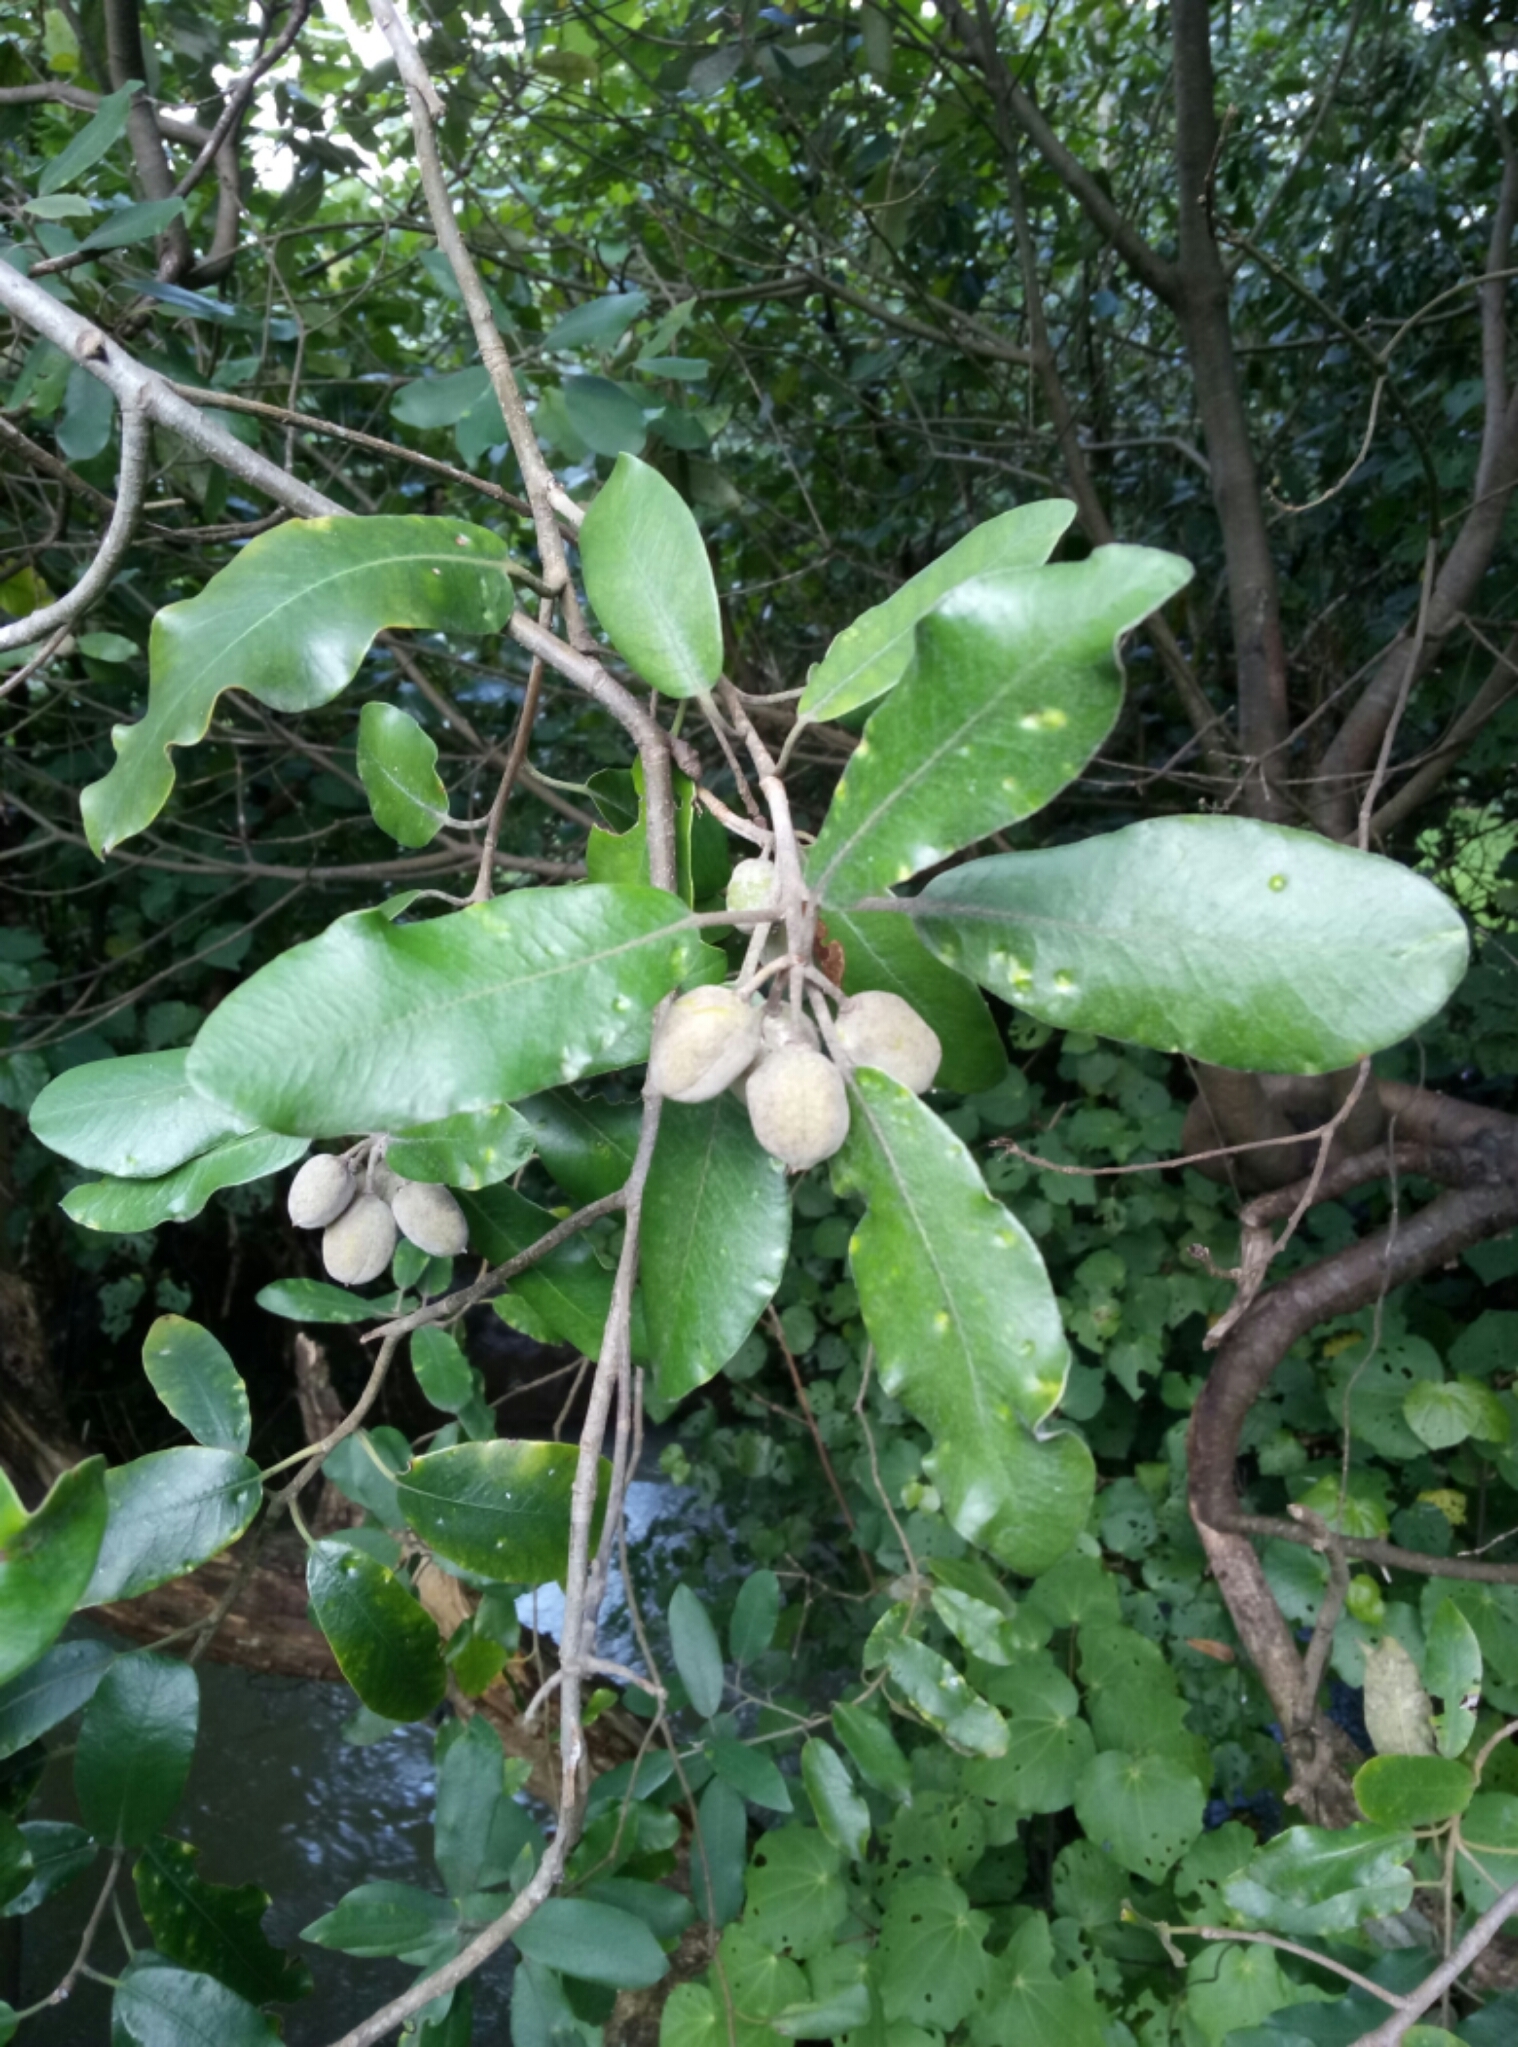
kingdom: Plantae
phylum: Tracheophyta
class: Magnoliopsida
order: Apiales
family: Pittosporaceae
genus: Pittosporum
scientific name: Pittosporum crassifolium
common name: Karo
